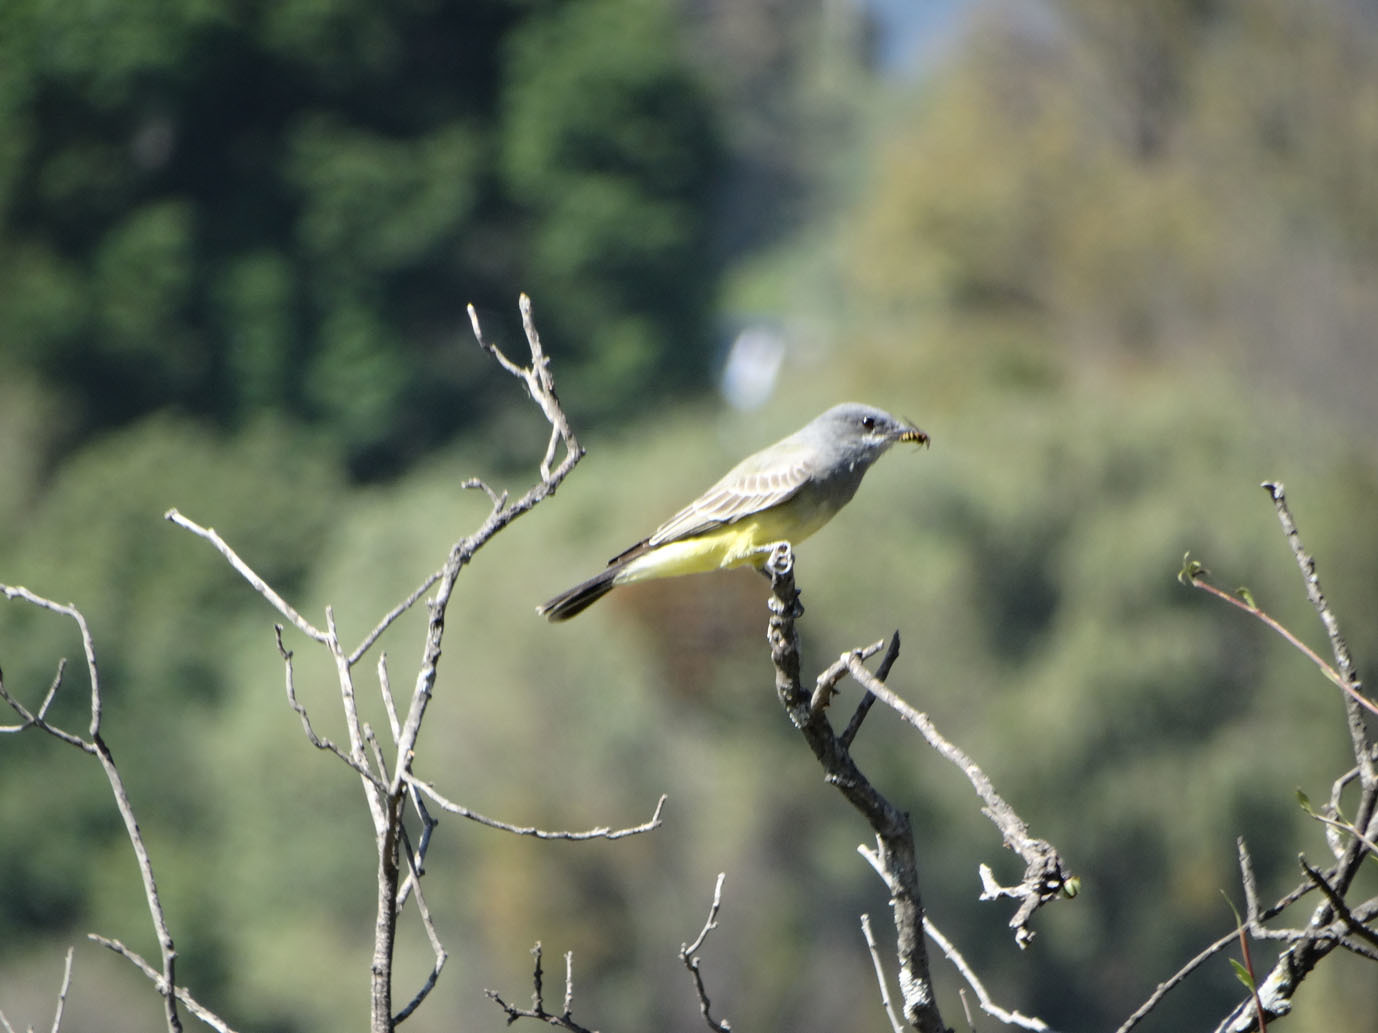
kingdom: Animalia
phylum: Chordata
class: Aves
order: Passeriformes
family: Tyrannidae
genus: Tyrannus
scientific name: Tyrannus vociferans
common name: Cassin's kingbird
